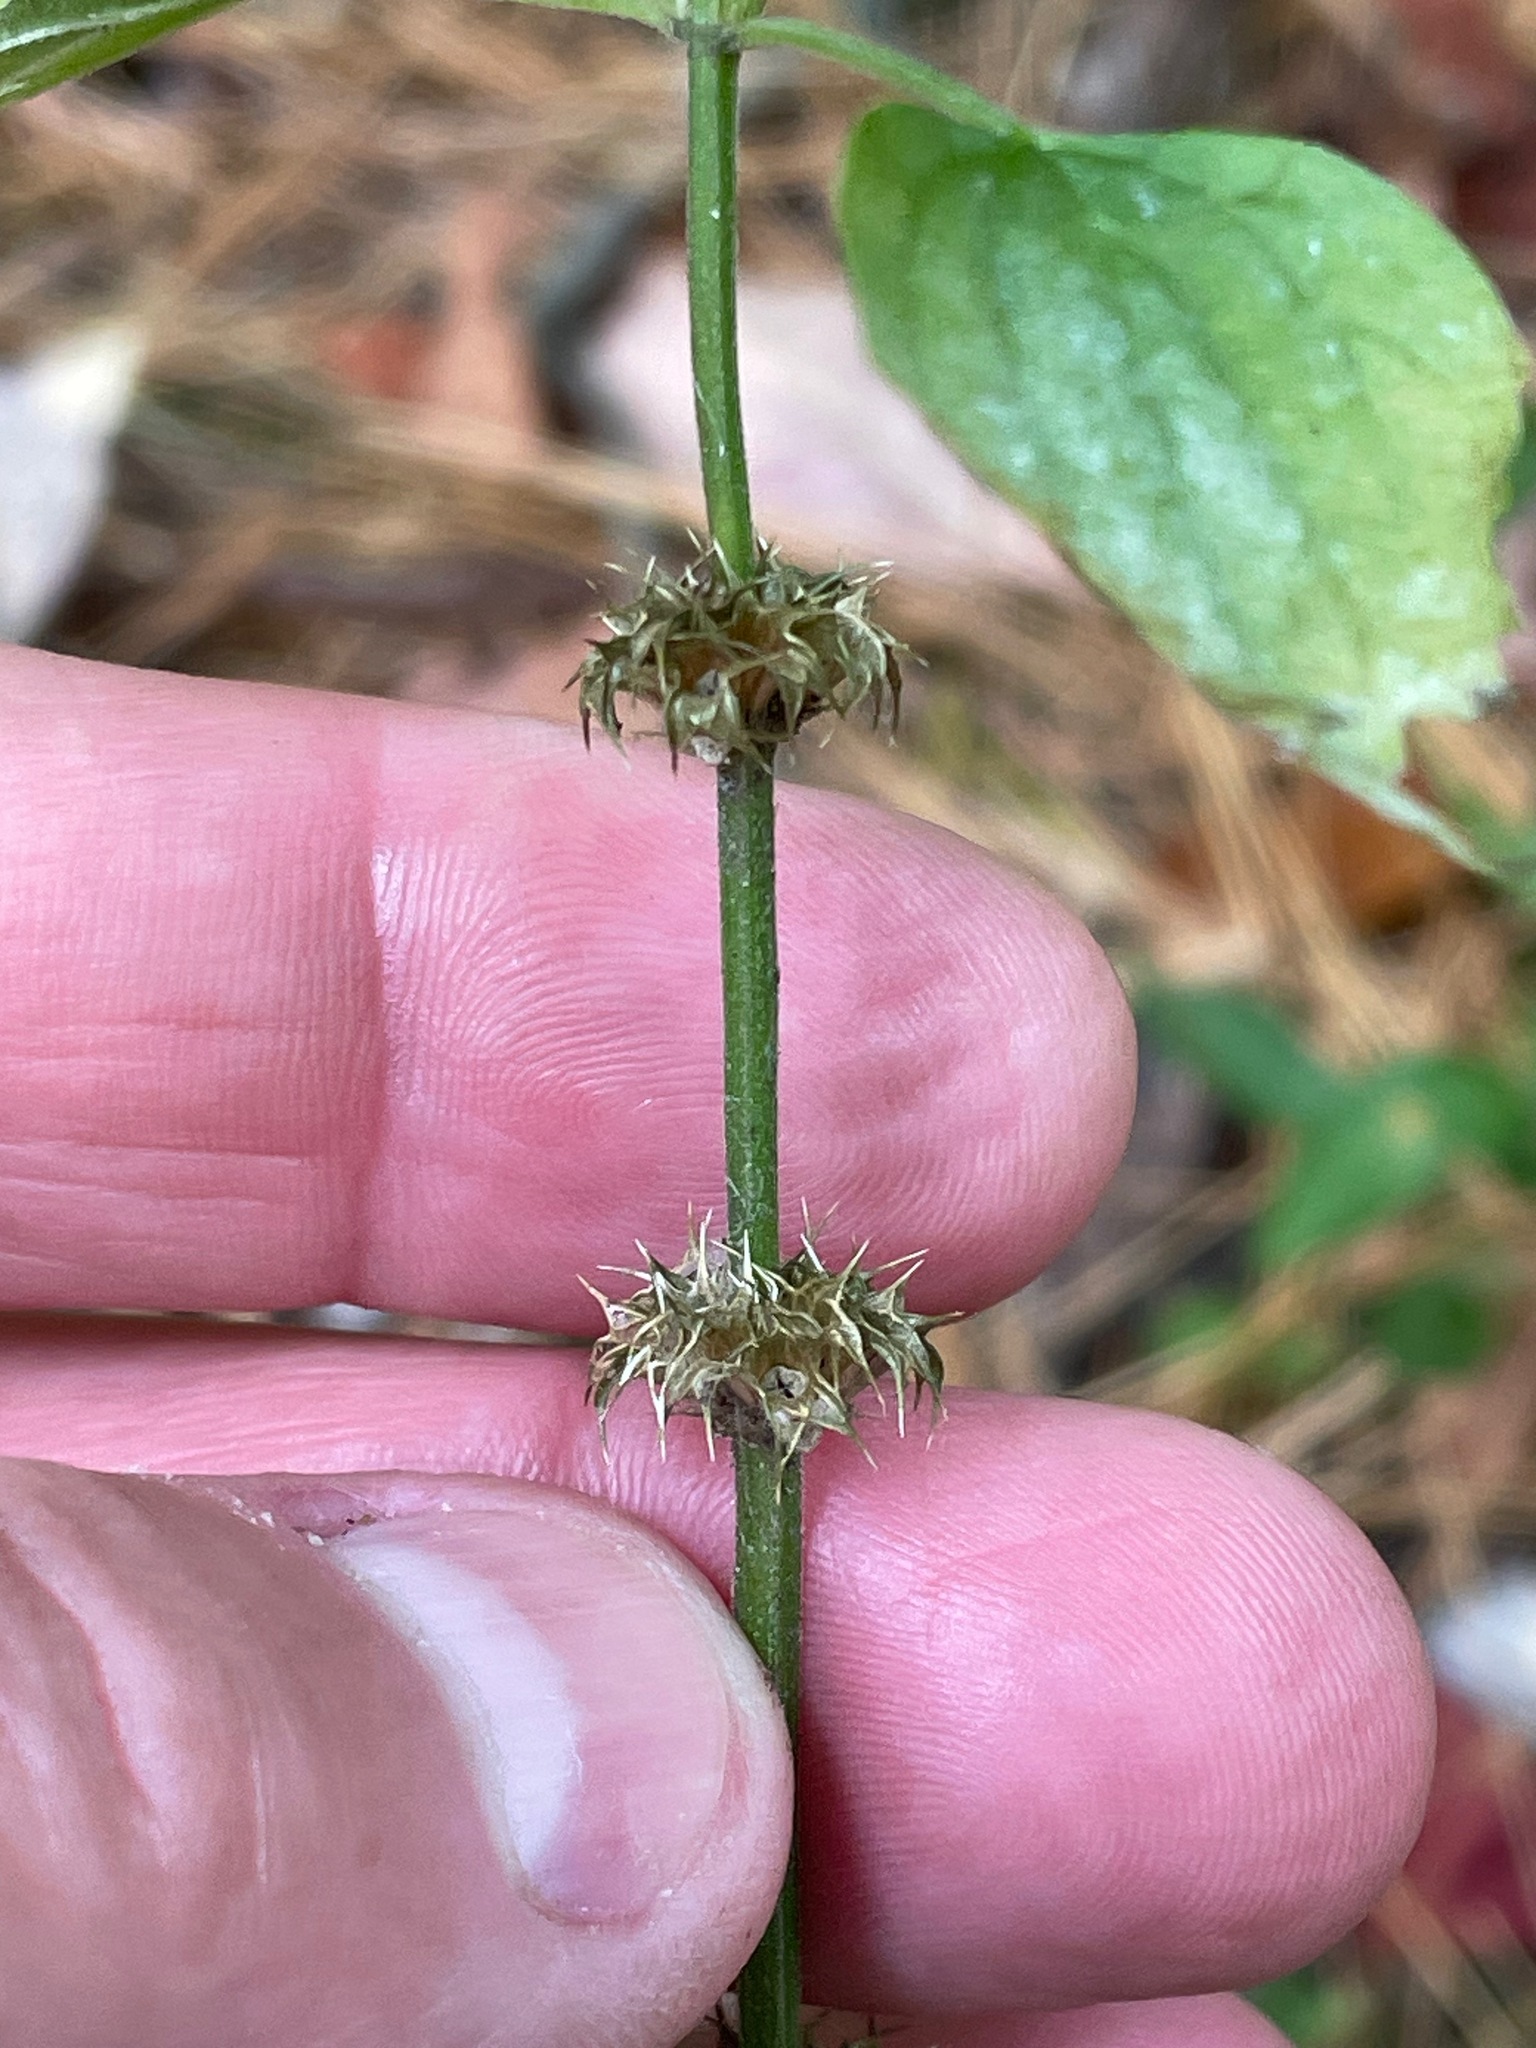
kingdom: Plantae
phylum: Tracheophyta
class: Magnoliopsida
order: Lamiales
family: Lamiaceae
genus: Leonurus
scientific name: Leonurus cardiaca
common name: Motherwort
